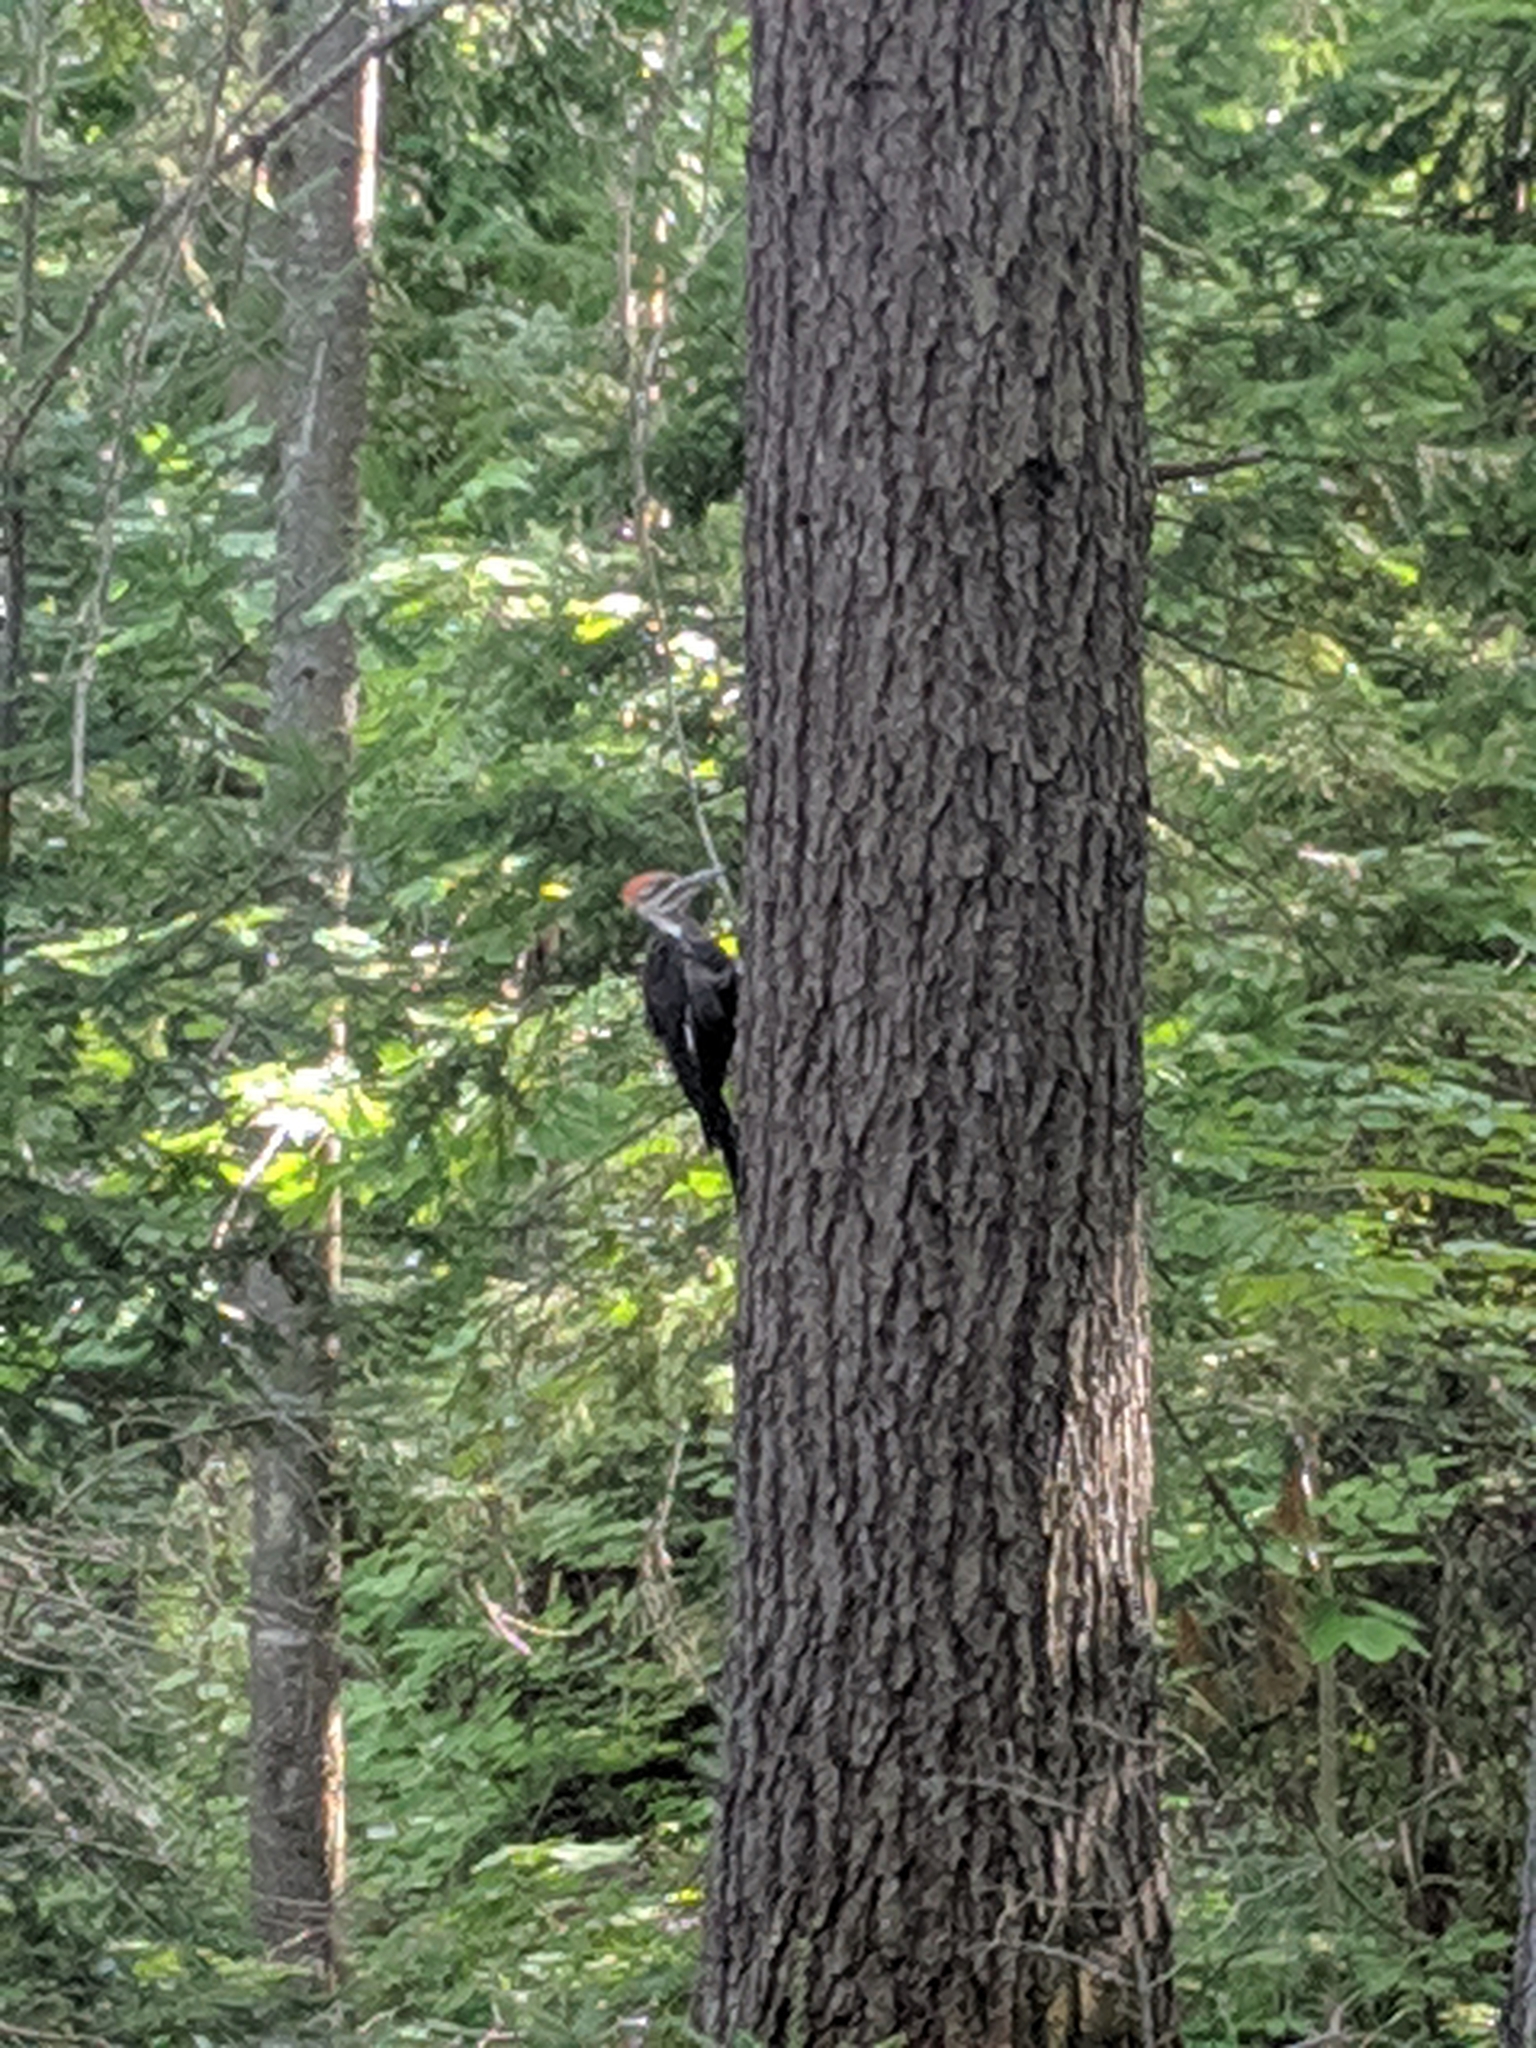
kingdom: Animalia
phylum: Chordata
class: Aves
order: Piciformes
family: Picidae
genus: Dryocopus
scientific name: Dryocopus pileatus
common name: Pileated woodpecker
